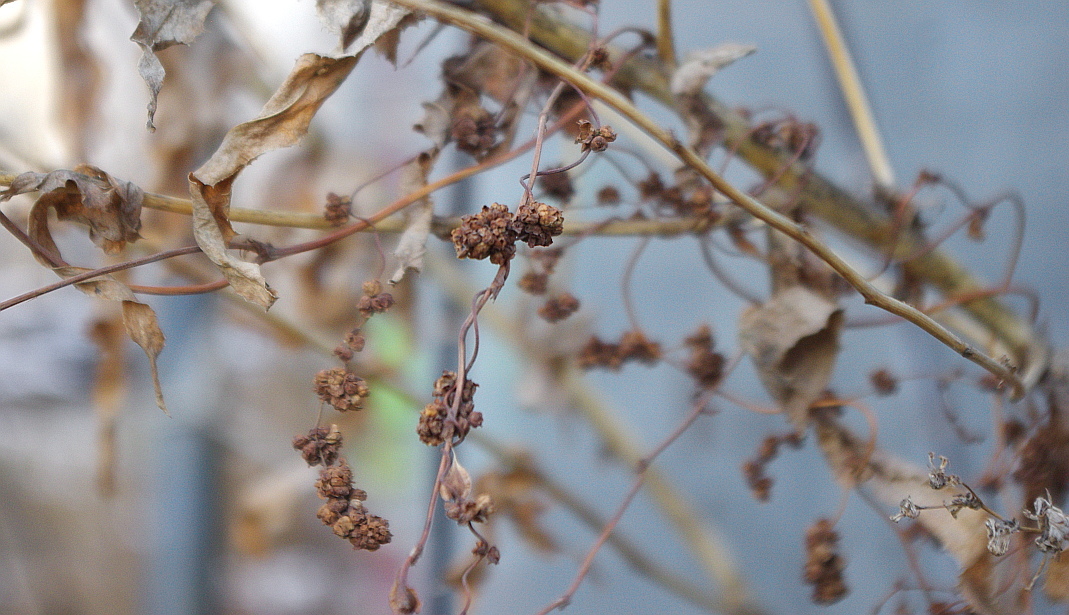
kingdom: Plantae
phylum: Tracheophyta
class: Magnoliopsida
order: Solanales
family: Convolvulaceae
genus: Cuscuta
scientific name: Cuscuta europaea
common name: Greater dodder
